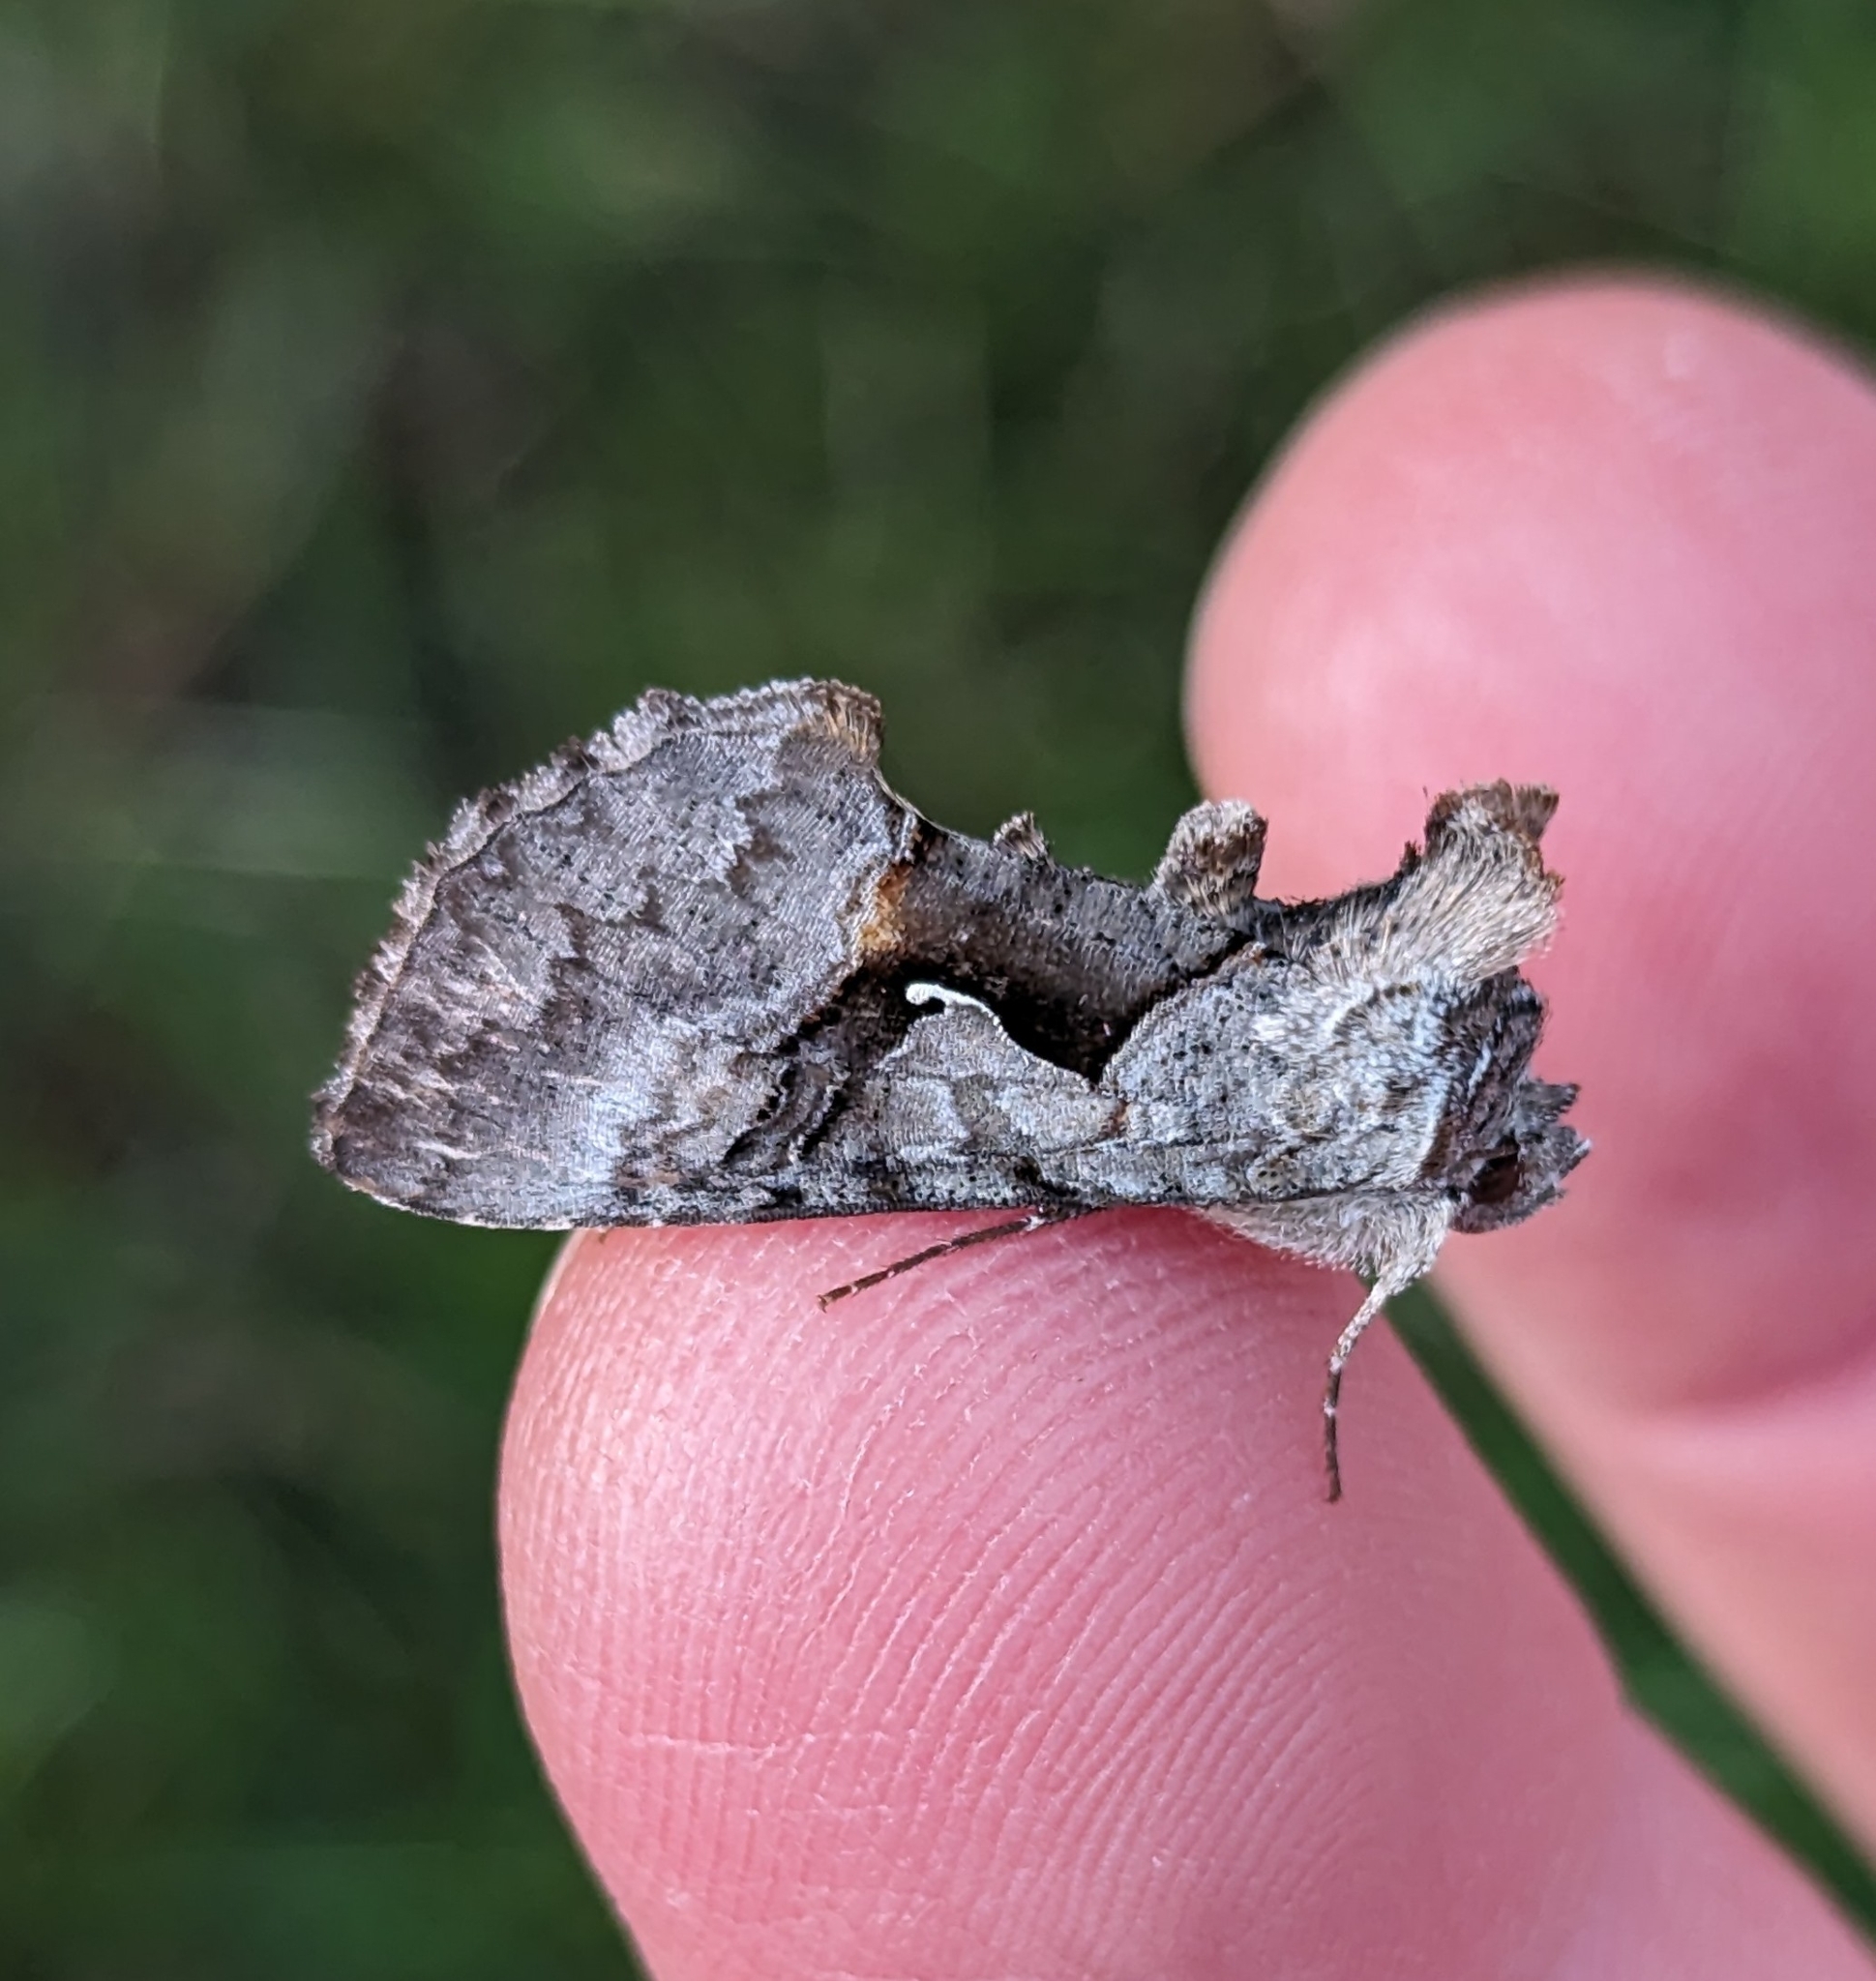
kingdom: Animalia
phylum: Arthropoda
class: Insecta
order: Lepidoptera
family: Noctuidae
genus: Syngrapha
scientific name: Syngrapha epigaea
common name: Epigaea looper moth
